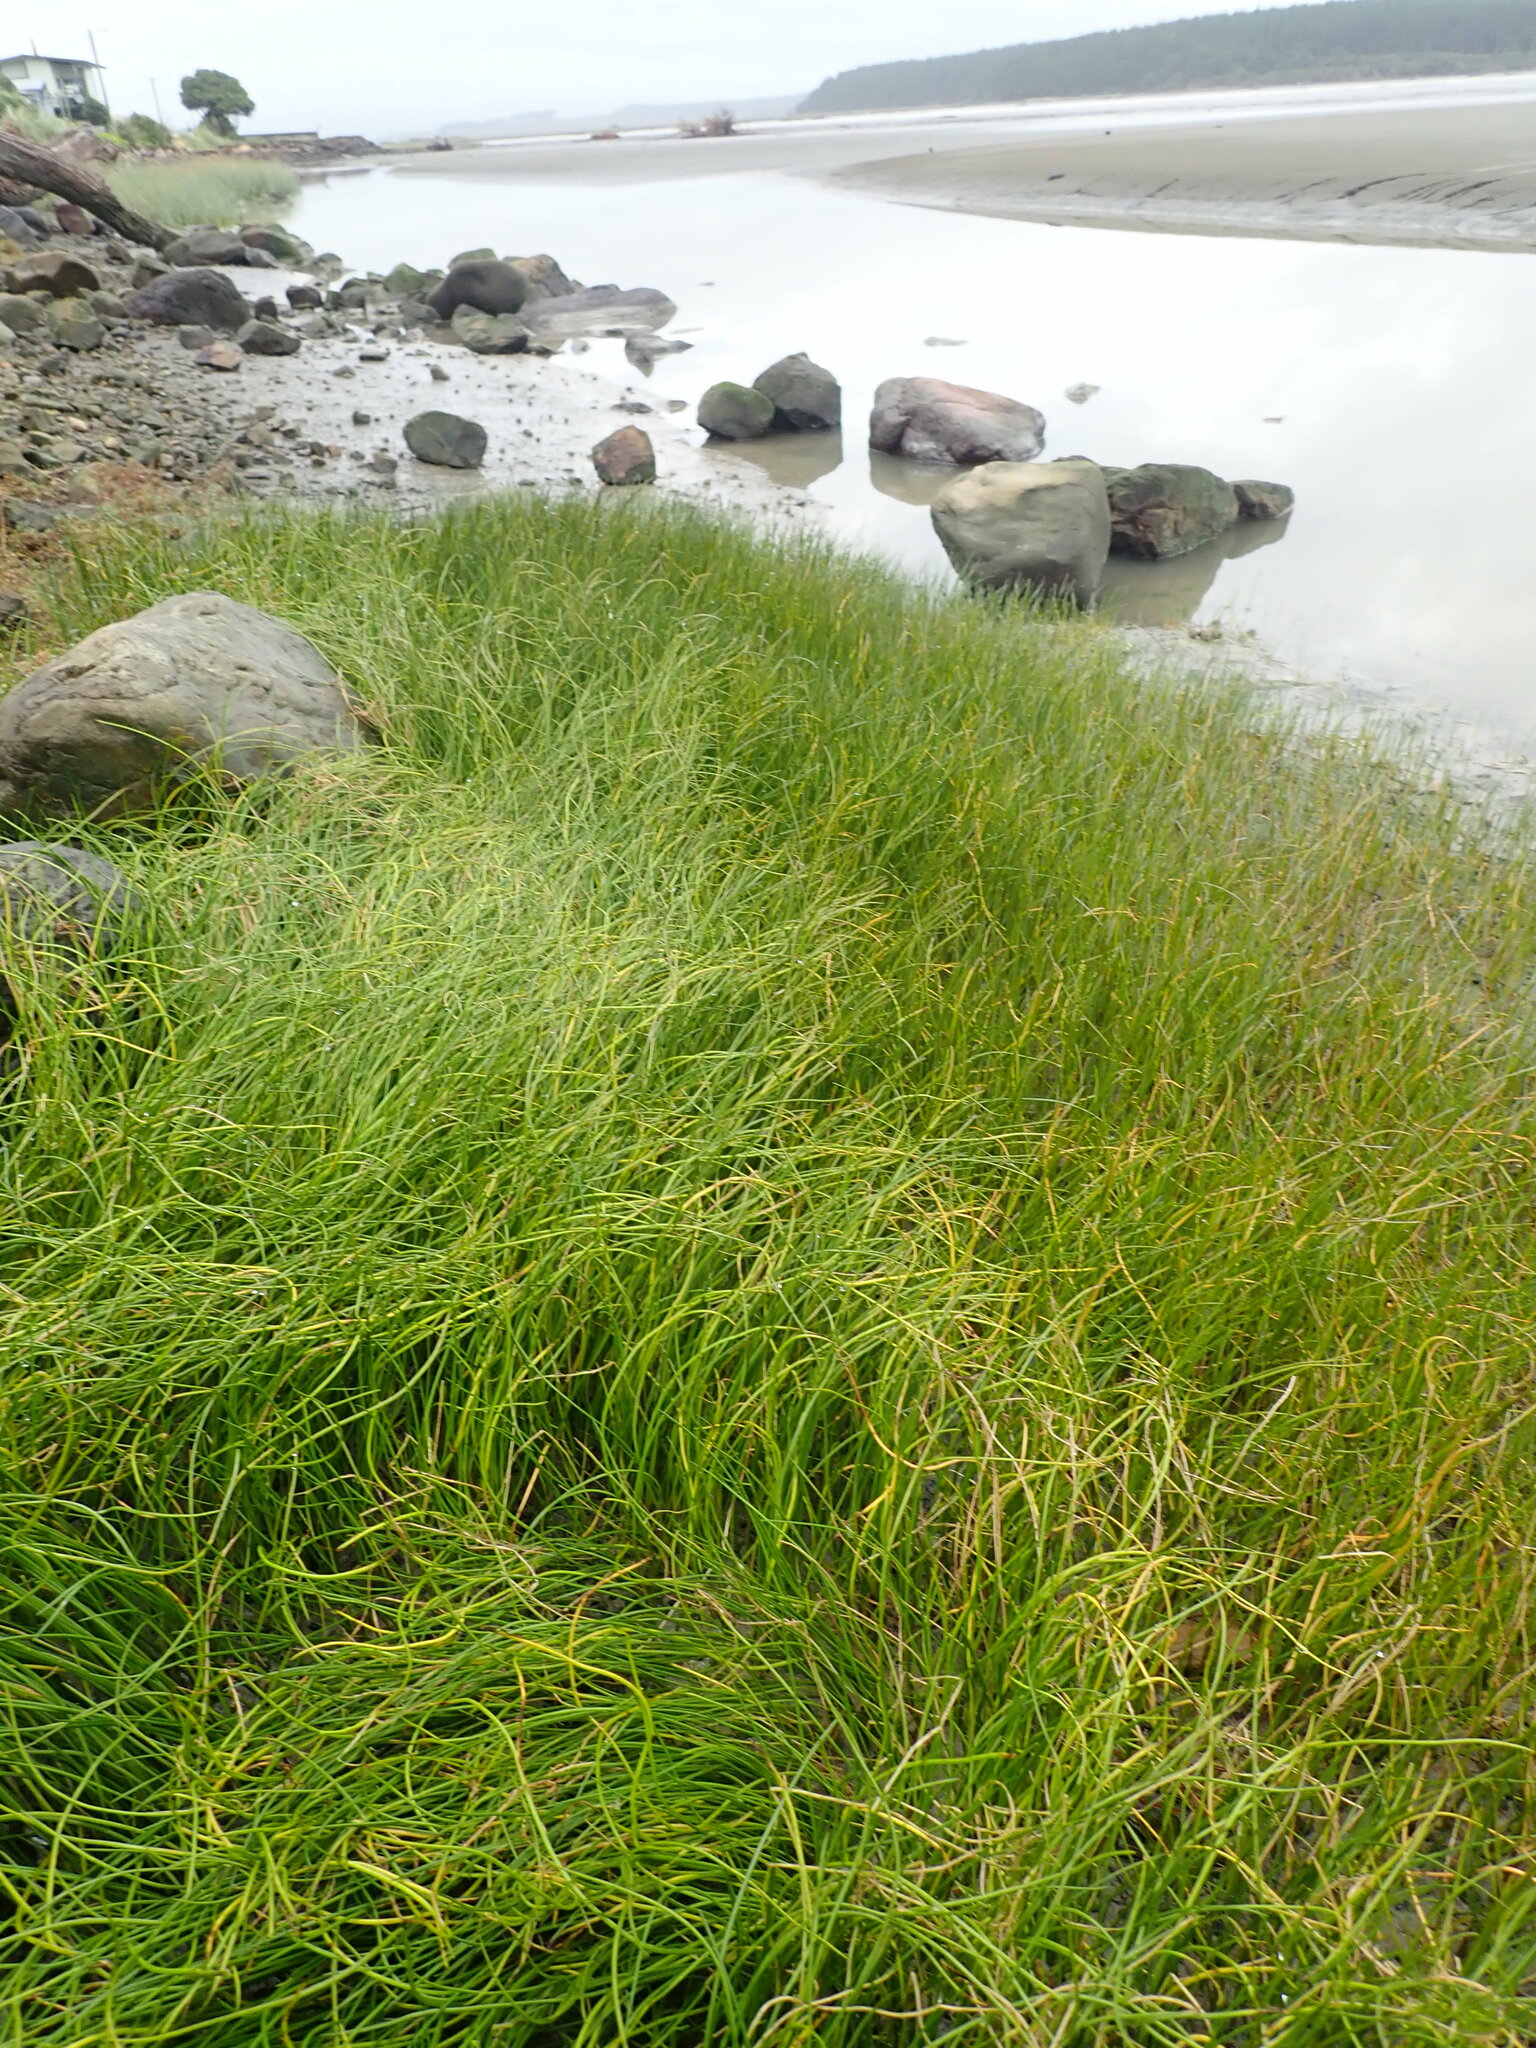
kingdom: Plantae
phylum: Tracheophyta
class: Liliopsida
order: Alismatales
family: Juncaginaceae
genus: Triglochin
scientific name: Triglochin striata
